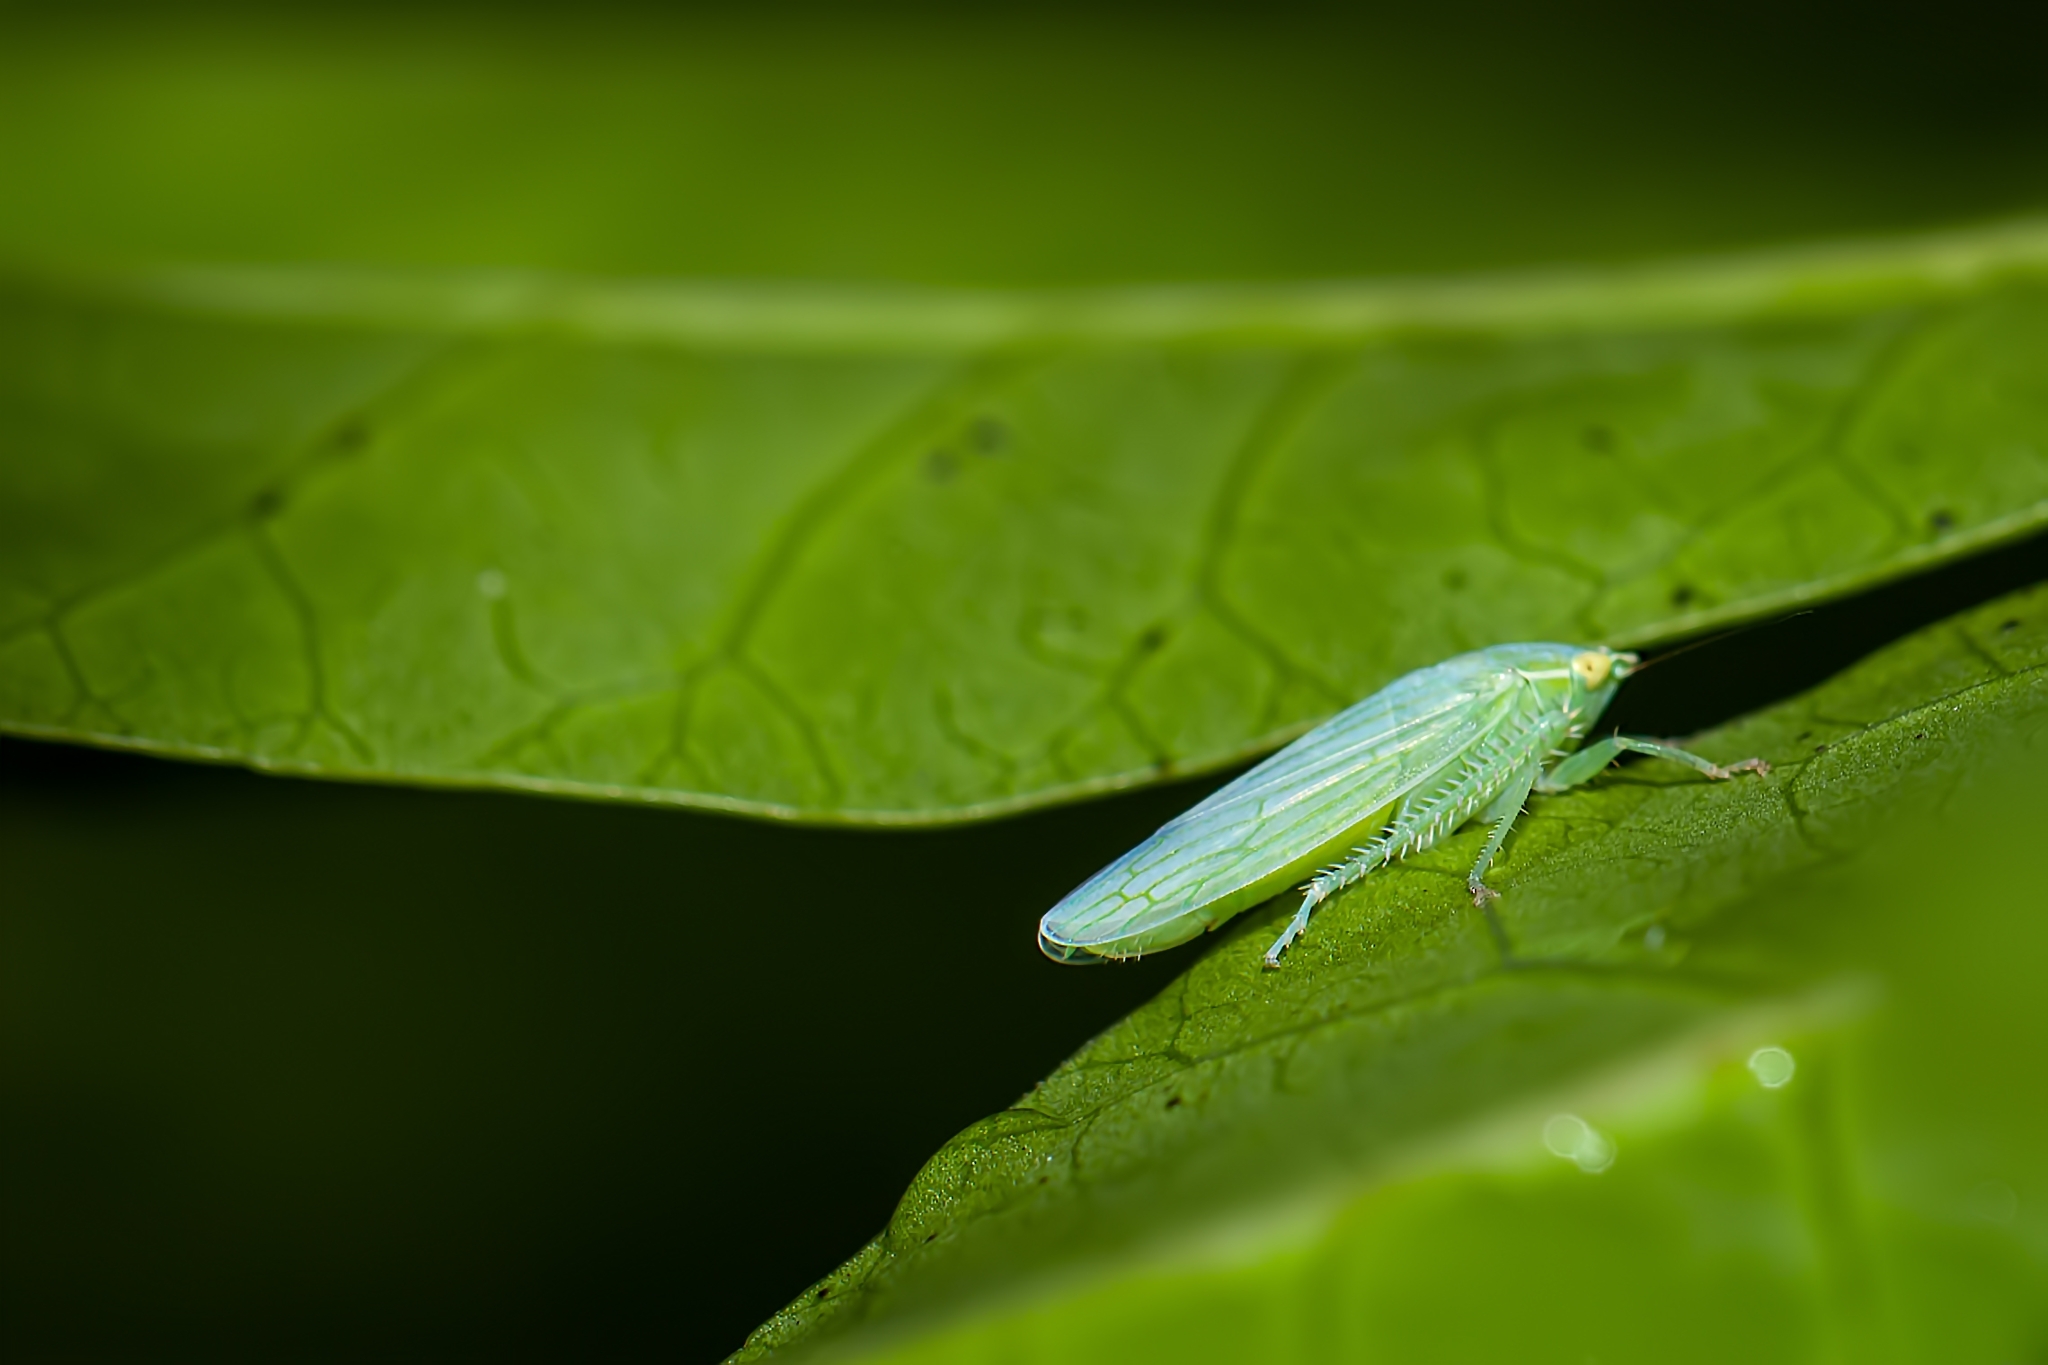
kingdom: Animalia
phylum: Arthropoda
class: Insecta
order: Hemiptera
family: Cicadellidae
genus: Gyponana
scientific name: Gyponana tenella
